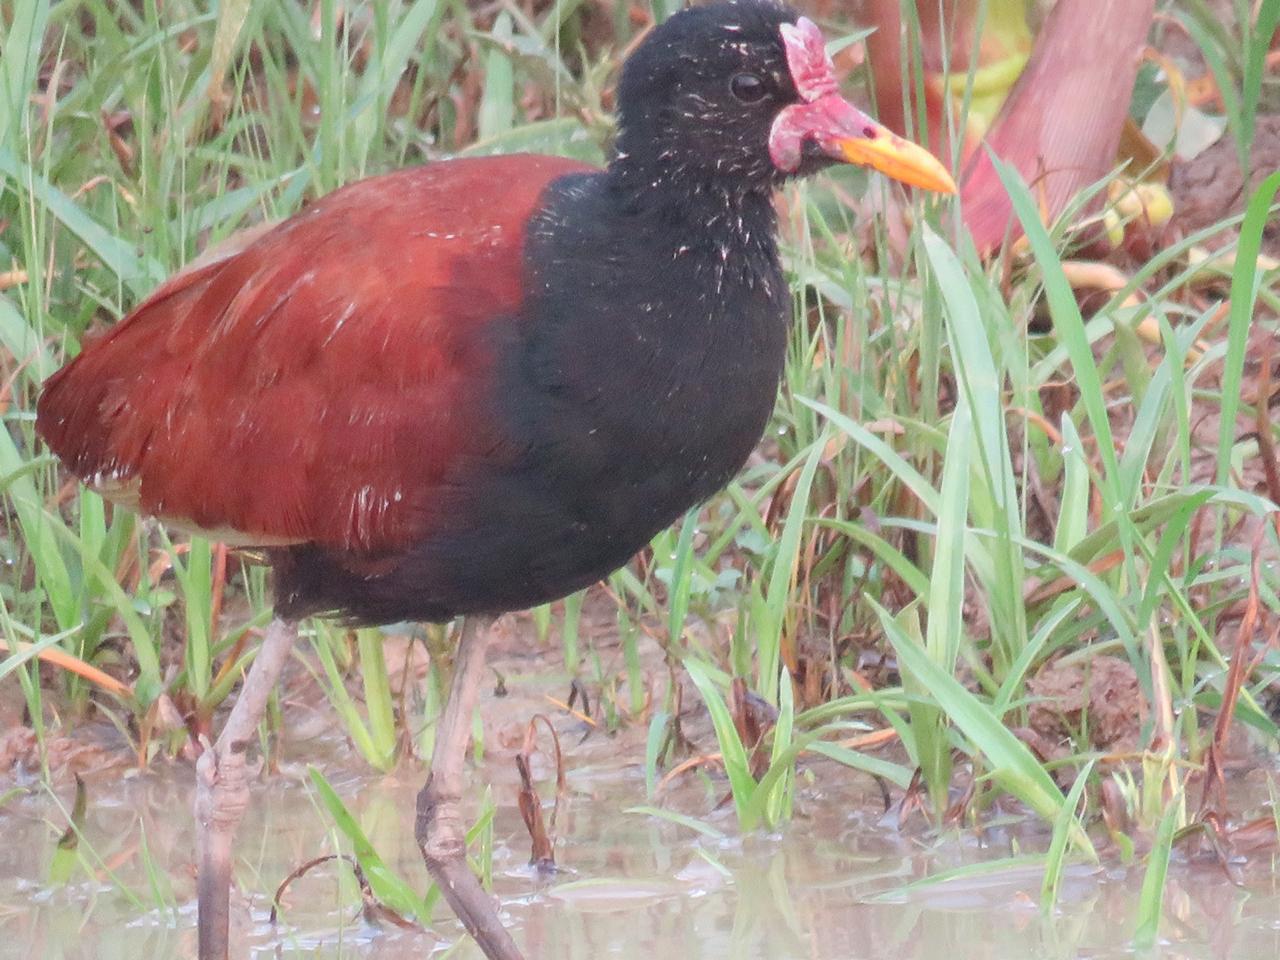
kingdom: Animalia
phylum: Chordata
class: Aves
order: Charadriiformes
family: Jacanidae
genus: Jacana
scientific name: Jacana jacana
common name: Wattled jacana
